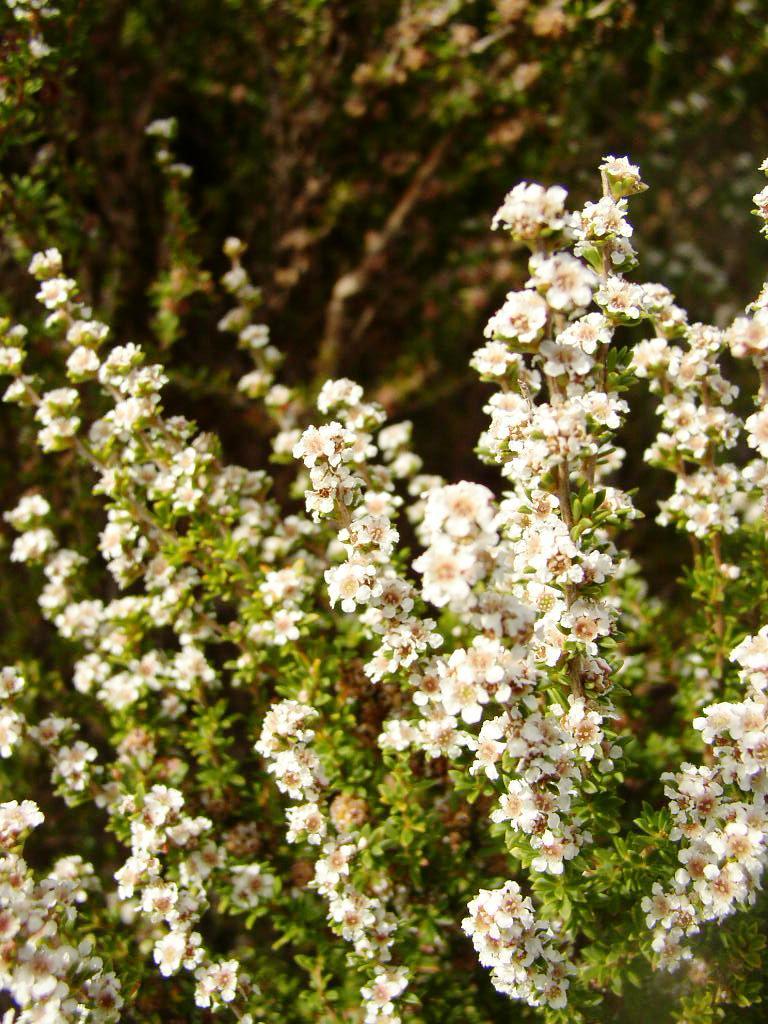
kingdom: Plantae
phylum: Tracheophyta
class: Magnoliopsida
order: Myrtales
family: Myrtaceae
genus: Taxandria
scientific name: Taxandria parviceps
